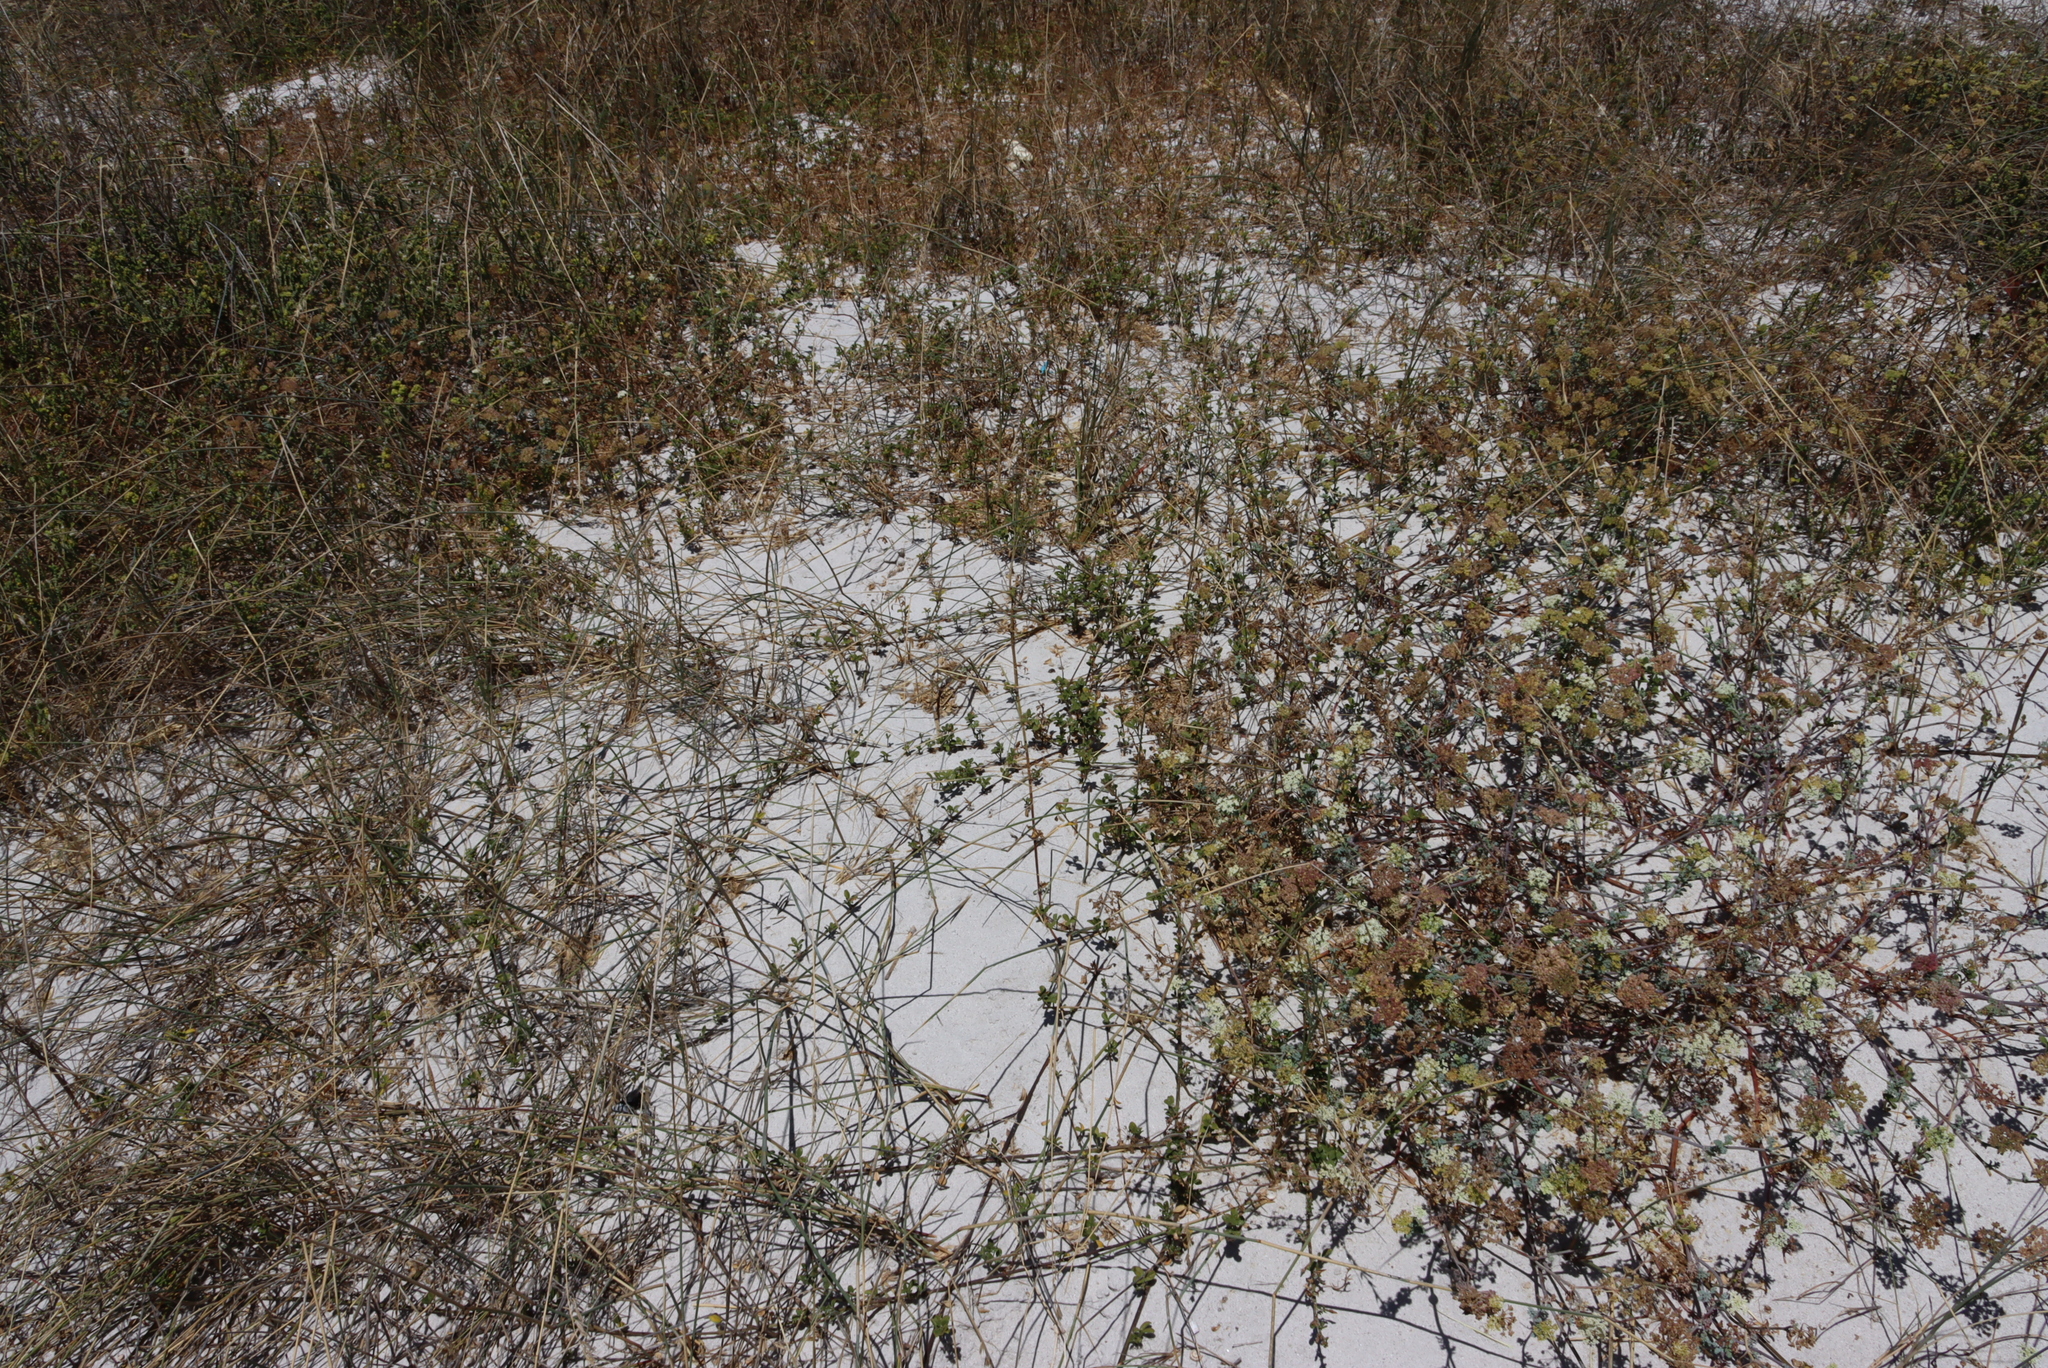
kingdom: Plantae
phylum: Tracheophyta
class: Magnoliopsida
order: Fabales
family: Fabaceae
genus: Psoralea
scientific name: Psoralea repens
